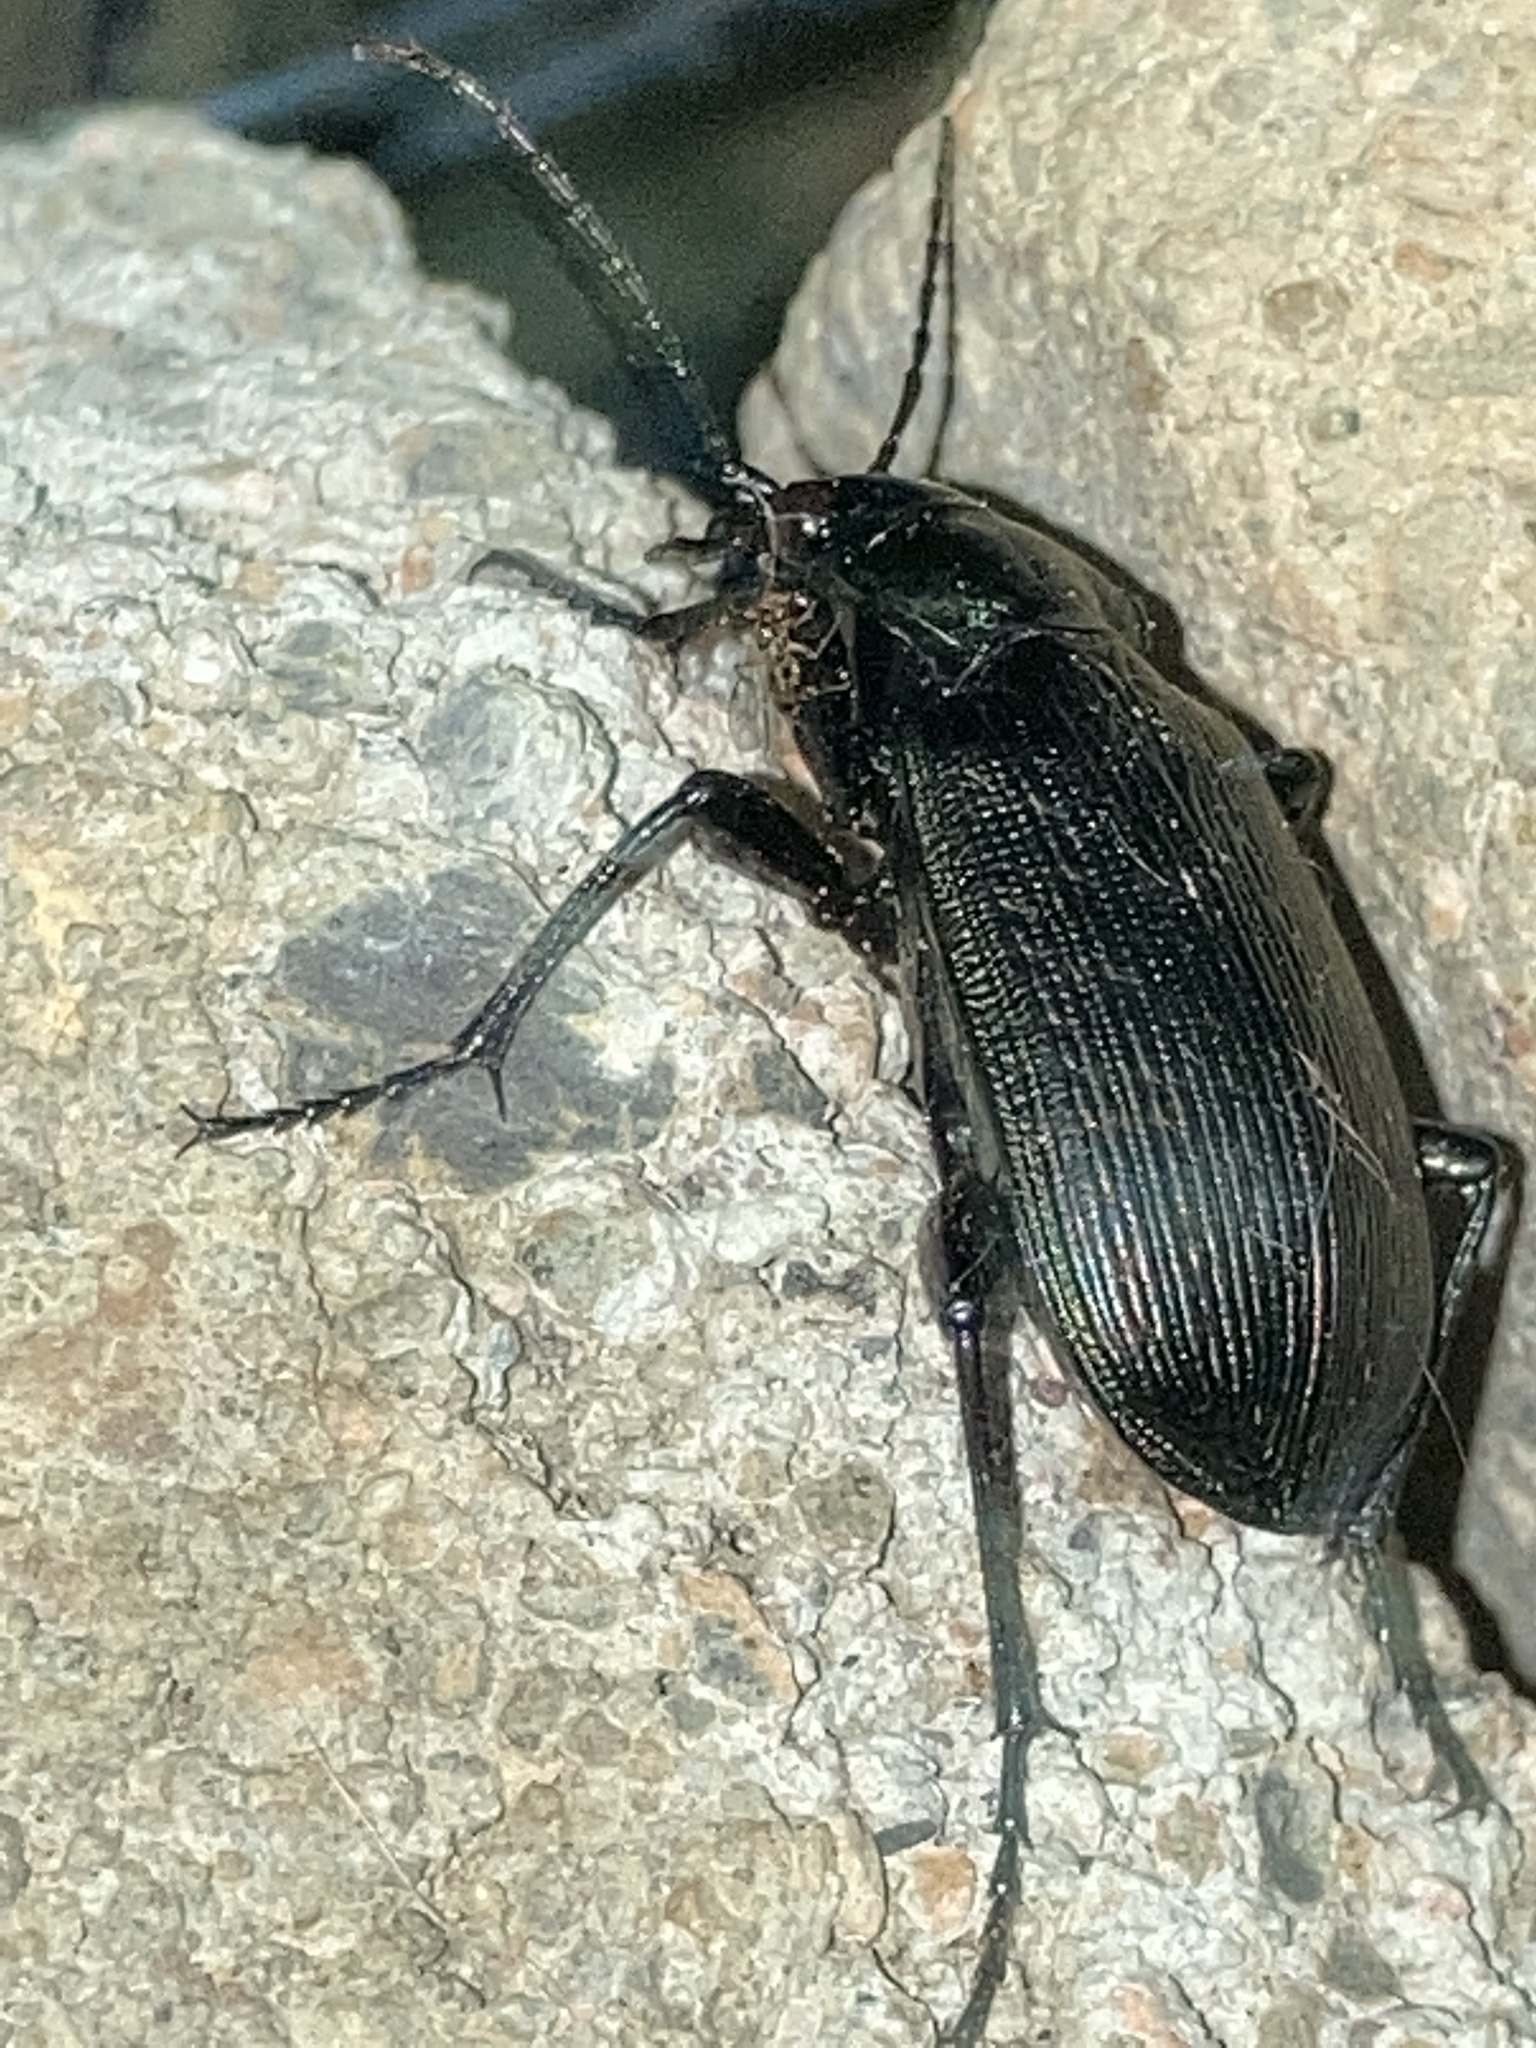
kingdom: Animalia
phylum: Arthropoda
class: Insecta
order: Coleoptera
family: Carabidae
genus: Calosoma
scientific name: Calosoma sayi
